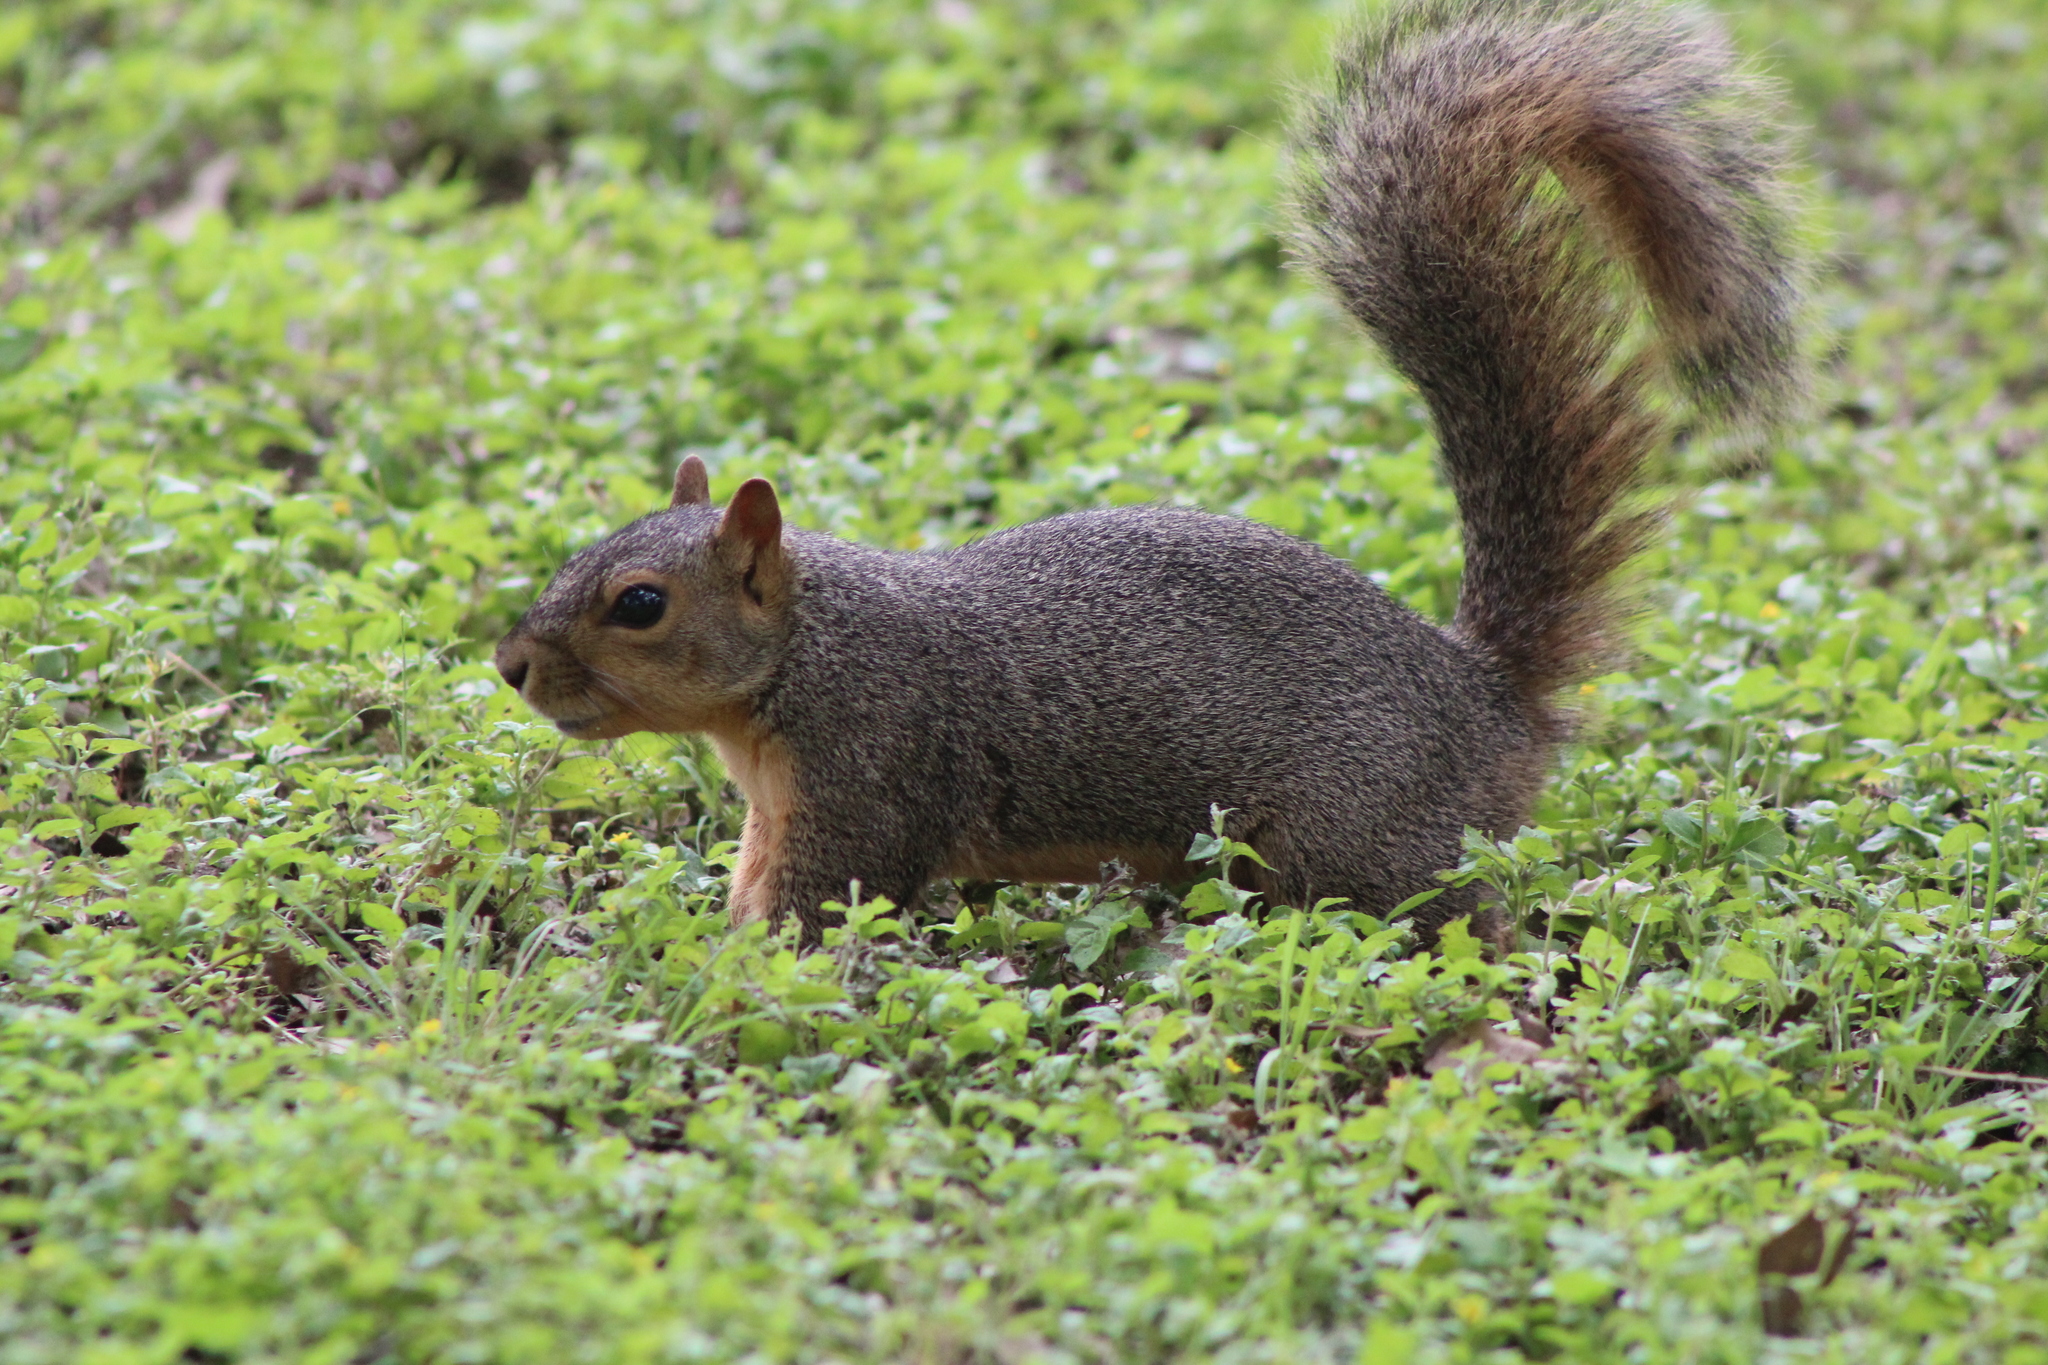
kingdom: Animalia
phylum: Chordata
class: Mammalia
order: Rodentia
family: Sciuridae
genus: Sciurus
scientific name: Sciurus niger
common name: Fox squirrel
